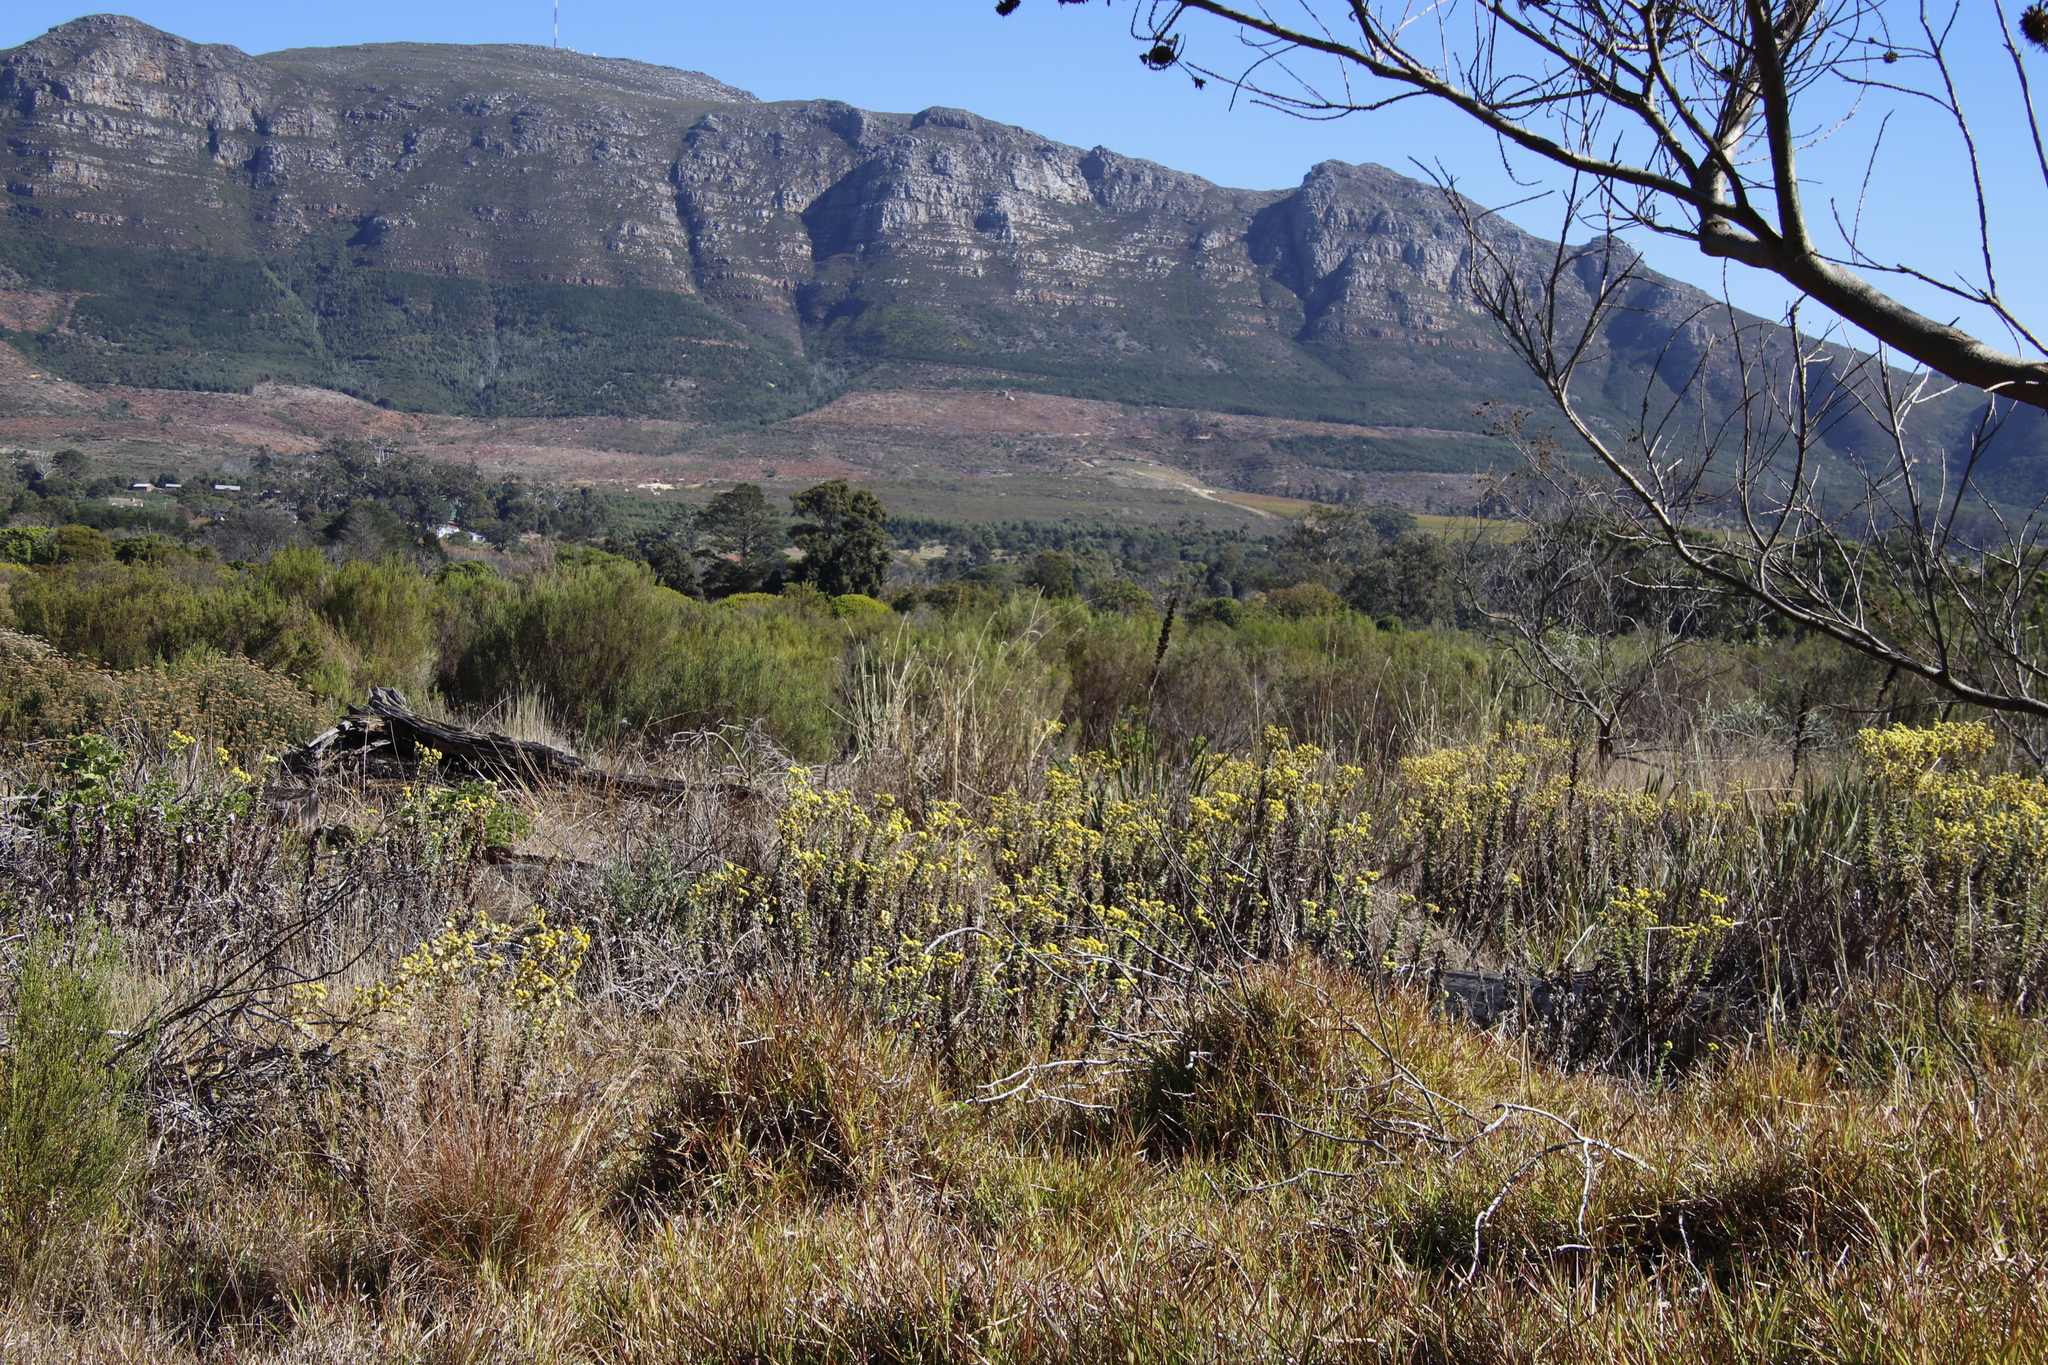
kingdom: Plantae
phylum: Tracheophyta
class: Magnoliopsida
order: Asterales
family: Asteraceae
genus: Helichrysum
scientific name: Helichrysum foetidum
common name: Stinking everlasting
